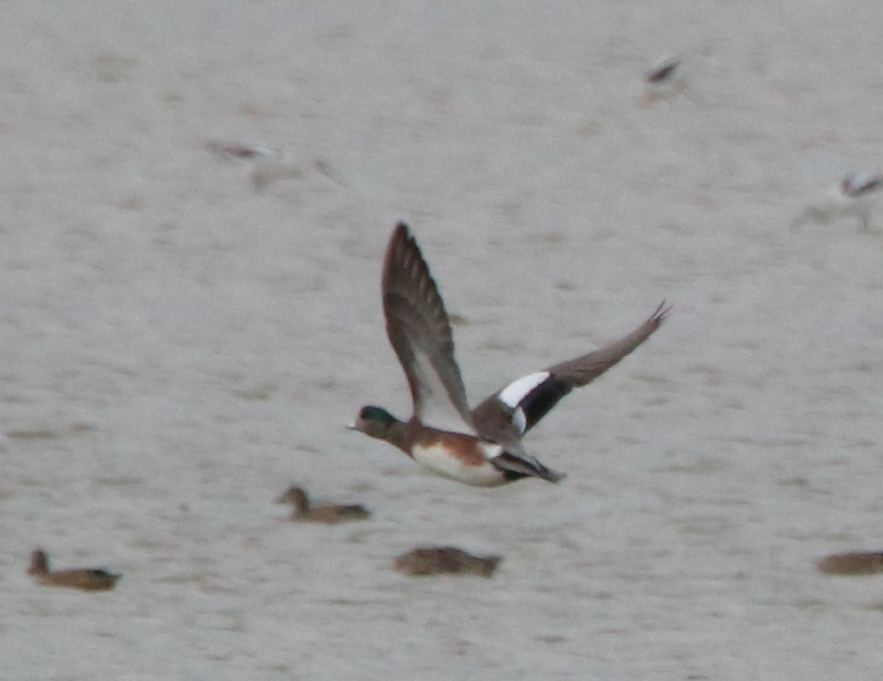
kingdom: Animalia
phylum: Chordata
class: Aves
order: Anseriformes
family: Anatidae
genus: Mareca
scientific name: Mareca americana
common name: American wigeon
